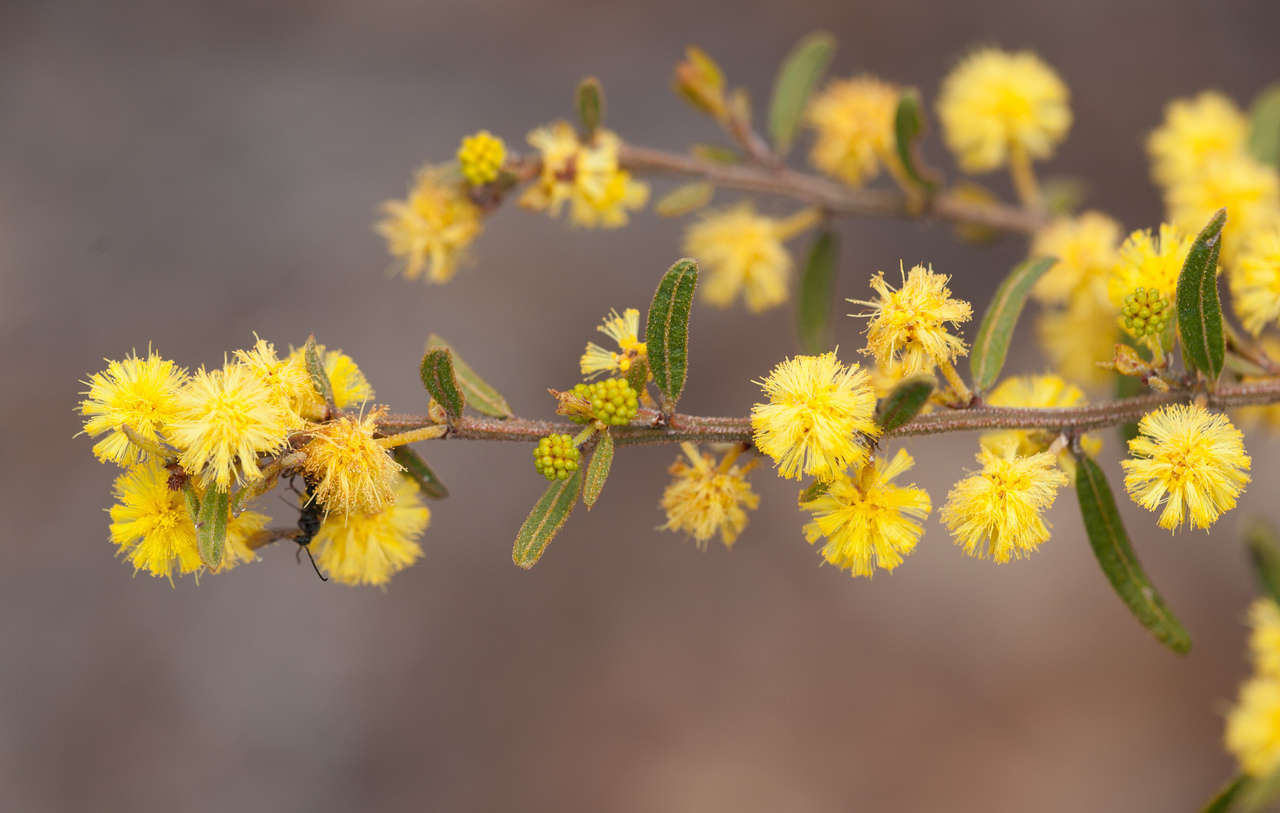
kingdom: Plantae
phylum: Tracheophyta
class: Magnoliopsida
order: Fabales
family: Fabaceae
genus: Acacia
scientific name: Acacia aspera
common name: Rough wattle
